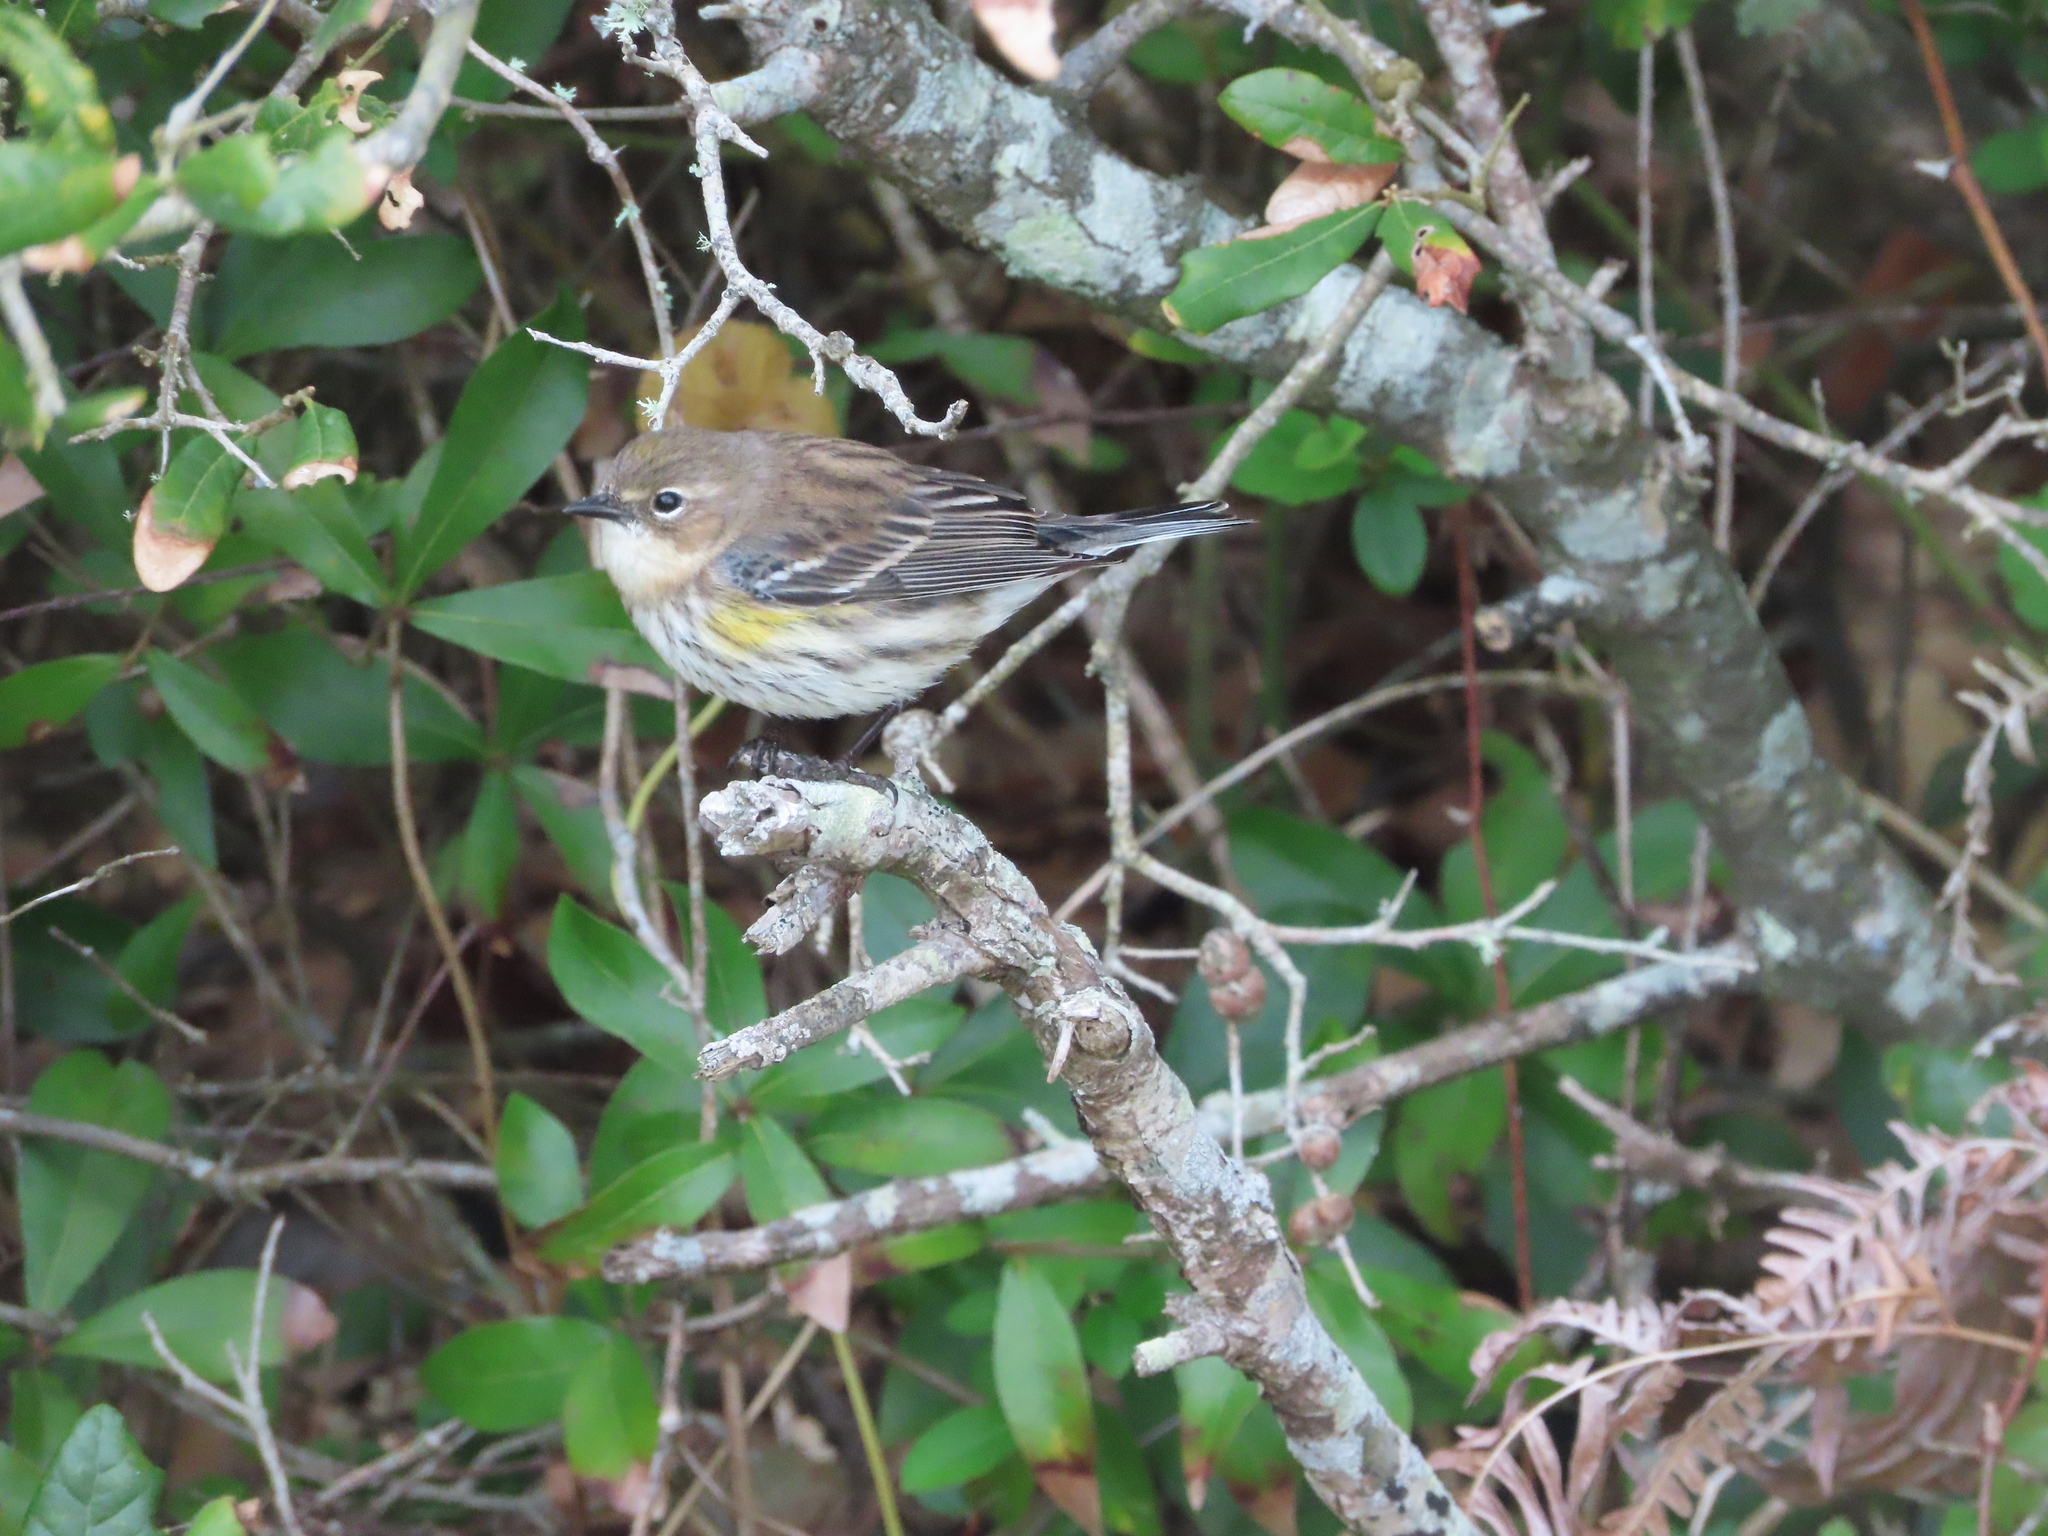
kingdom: Animalia
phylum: Chordata
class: Aves
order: Passeriformes
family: Parulidae
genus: Setophaga
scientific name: Setophaga coronata
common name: Myrtle warbler
